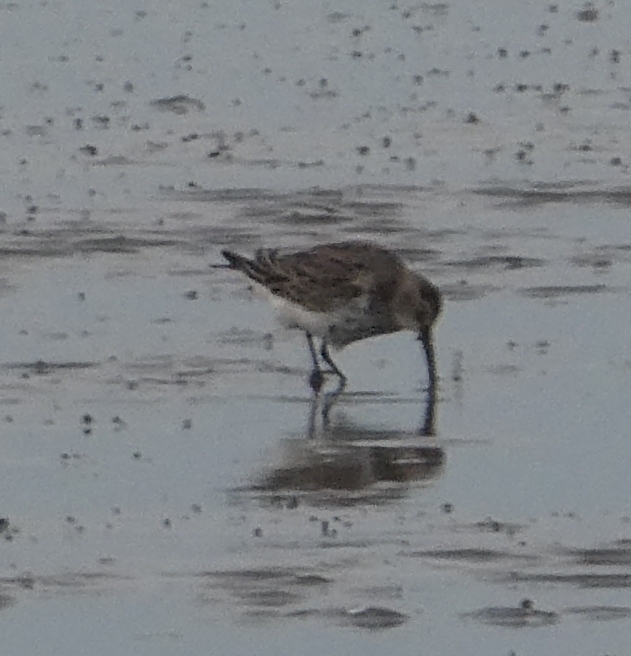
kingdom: Animalia
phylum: Chordata
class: Aves
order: Charadriiformes
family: Scolopacidae
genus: Calidris
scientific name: Calidris alpina
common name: Dunlin
